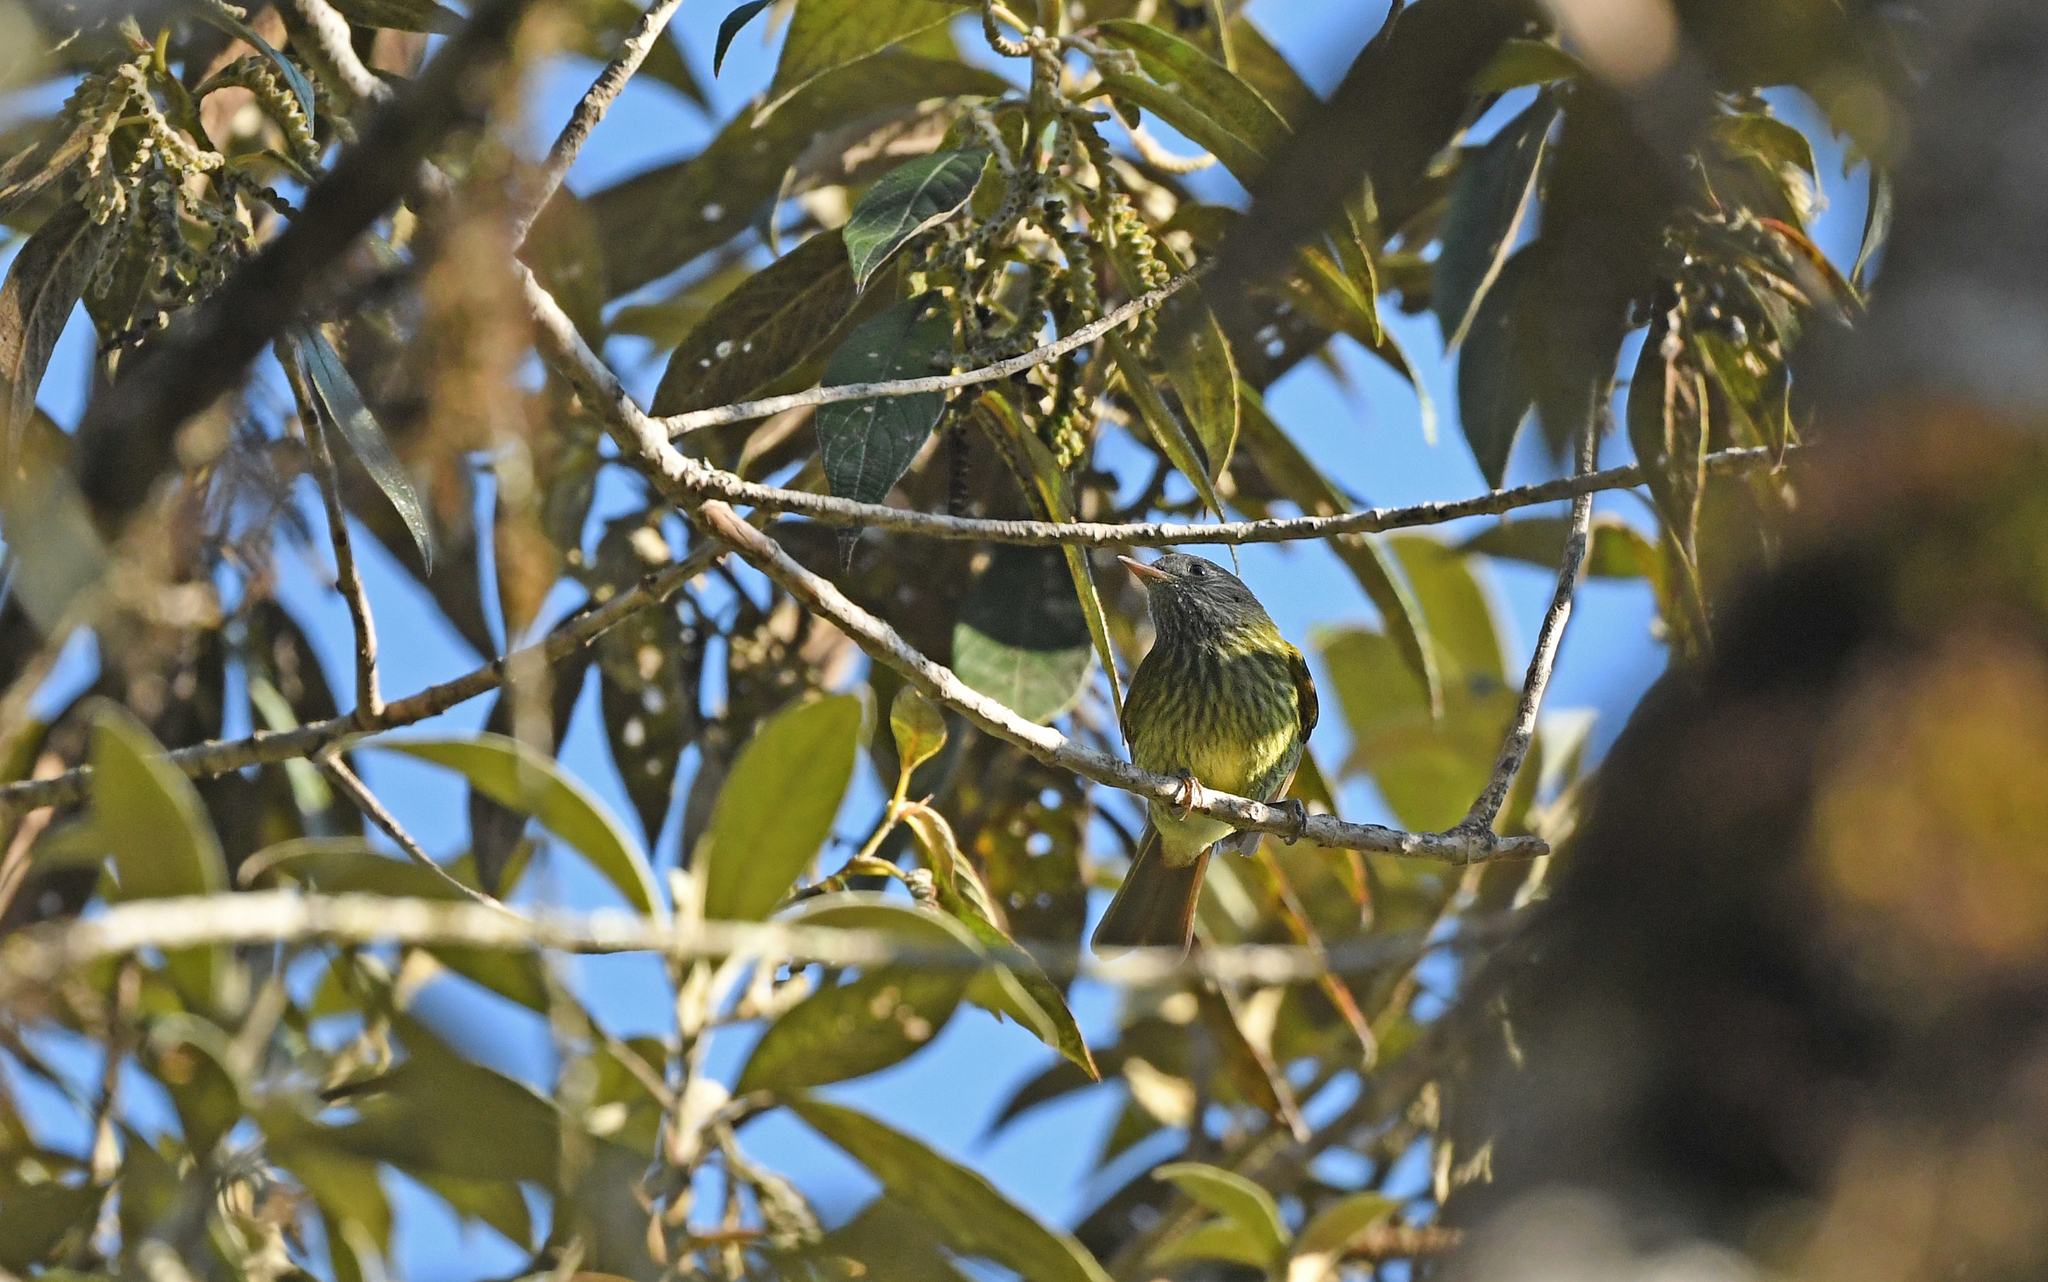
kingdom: Animalia
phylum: Chordata
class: Aves
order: Passeriformes
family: Tyrannidae
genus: Mionectes
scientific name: Mionectes striaticollis
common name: Streak-necked flycatcher
